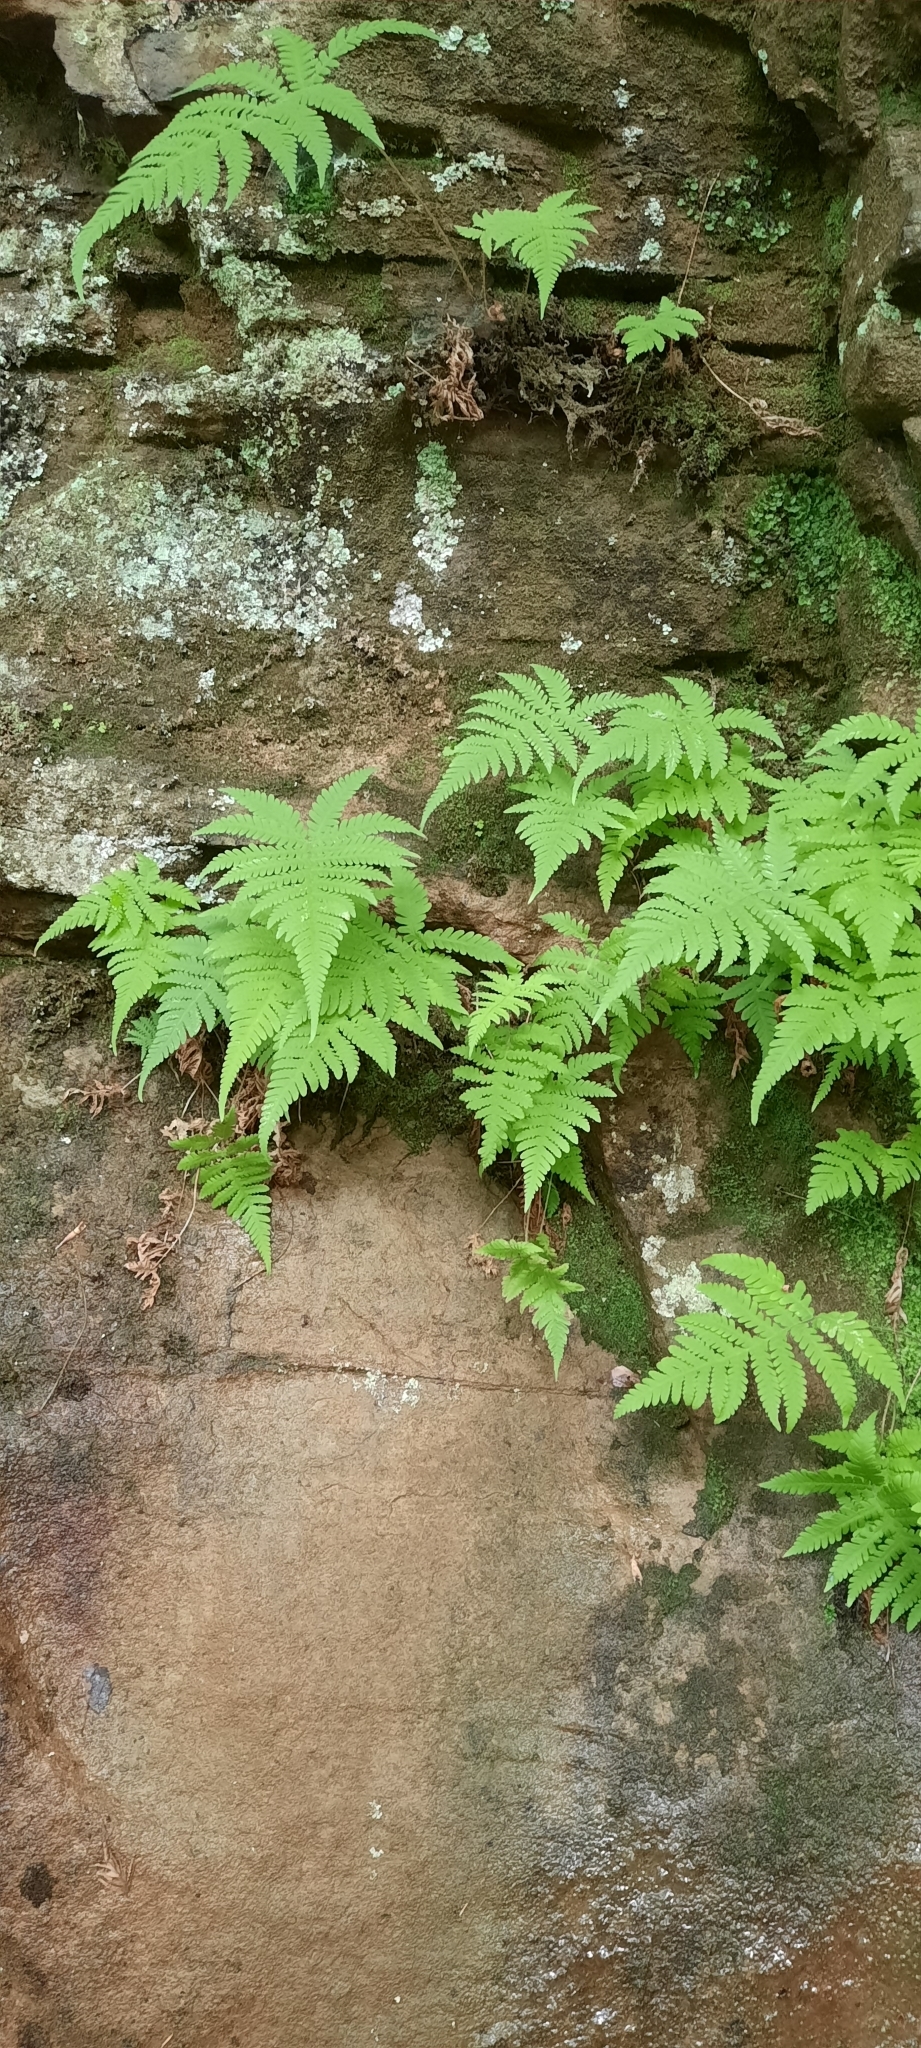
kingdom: Plantae
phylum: Tracheophyta
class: Polypodiopsida
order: Polypodiales
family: Thelypteridaceae
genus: Phegopteris
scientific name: Phegopteris connectilis
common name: Beech fern
